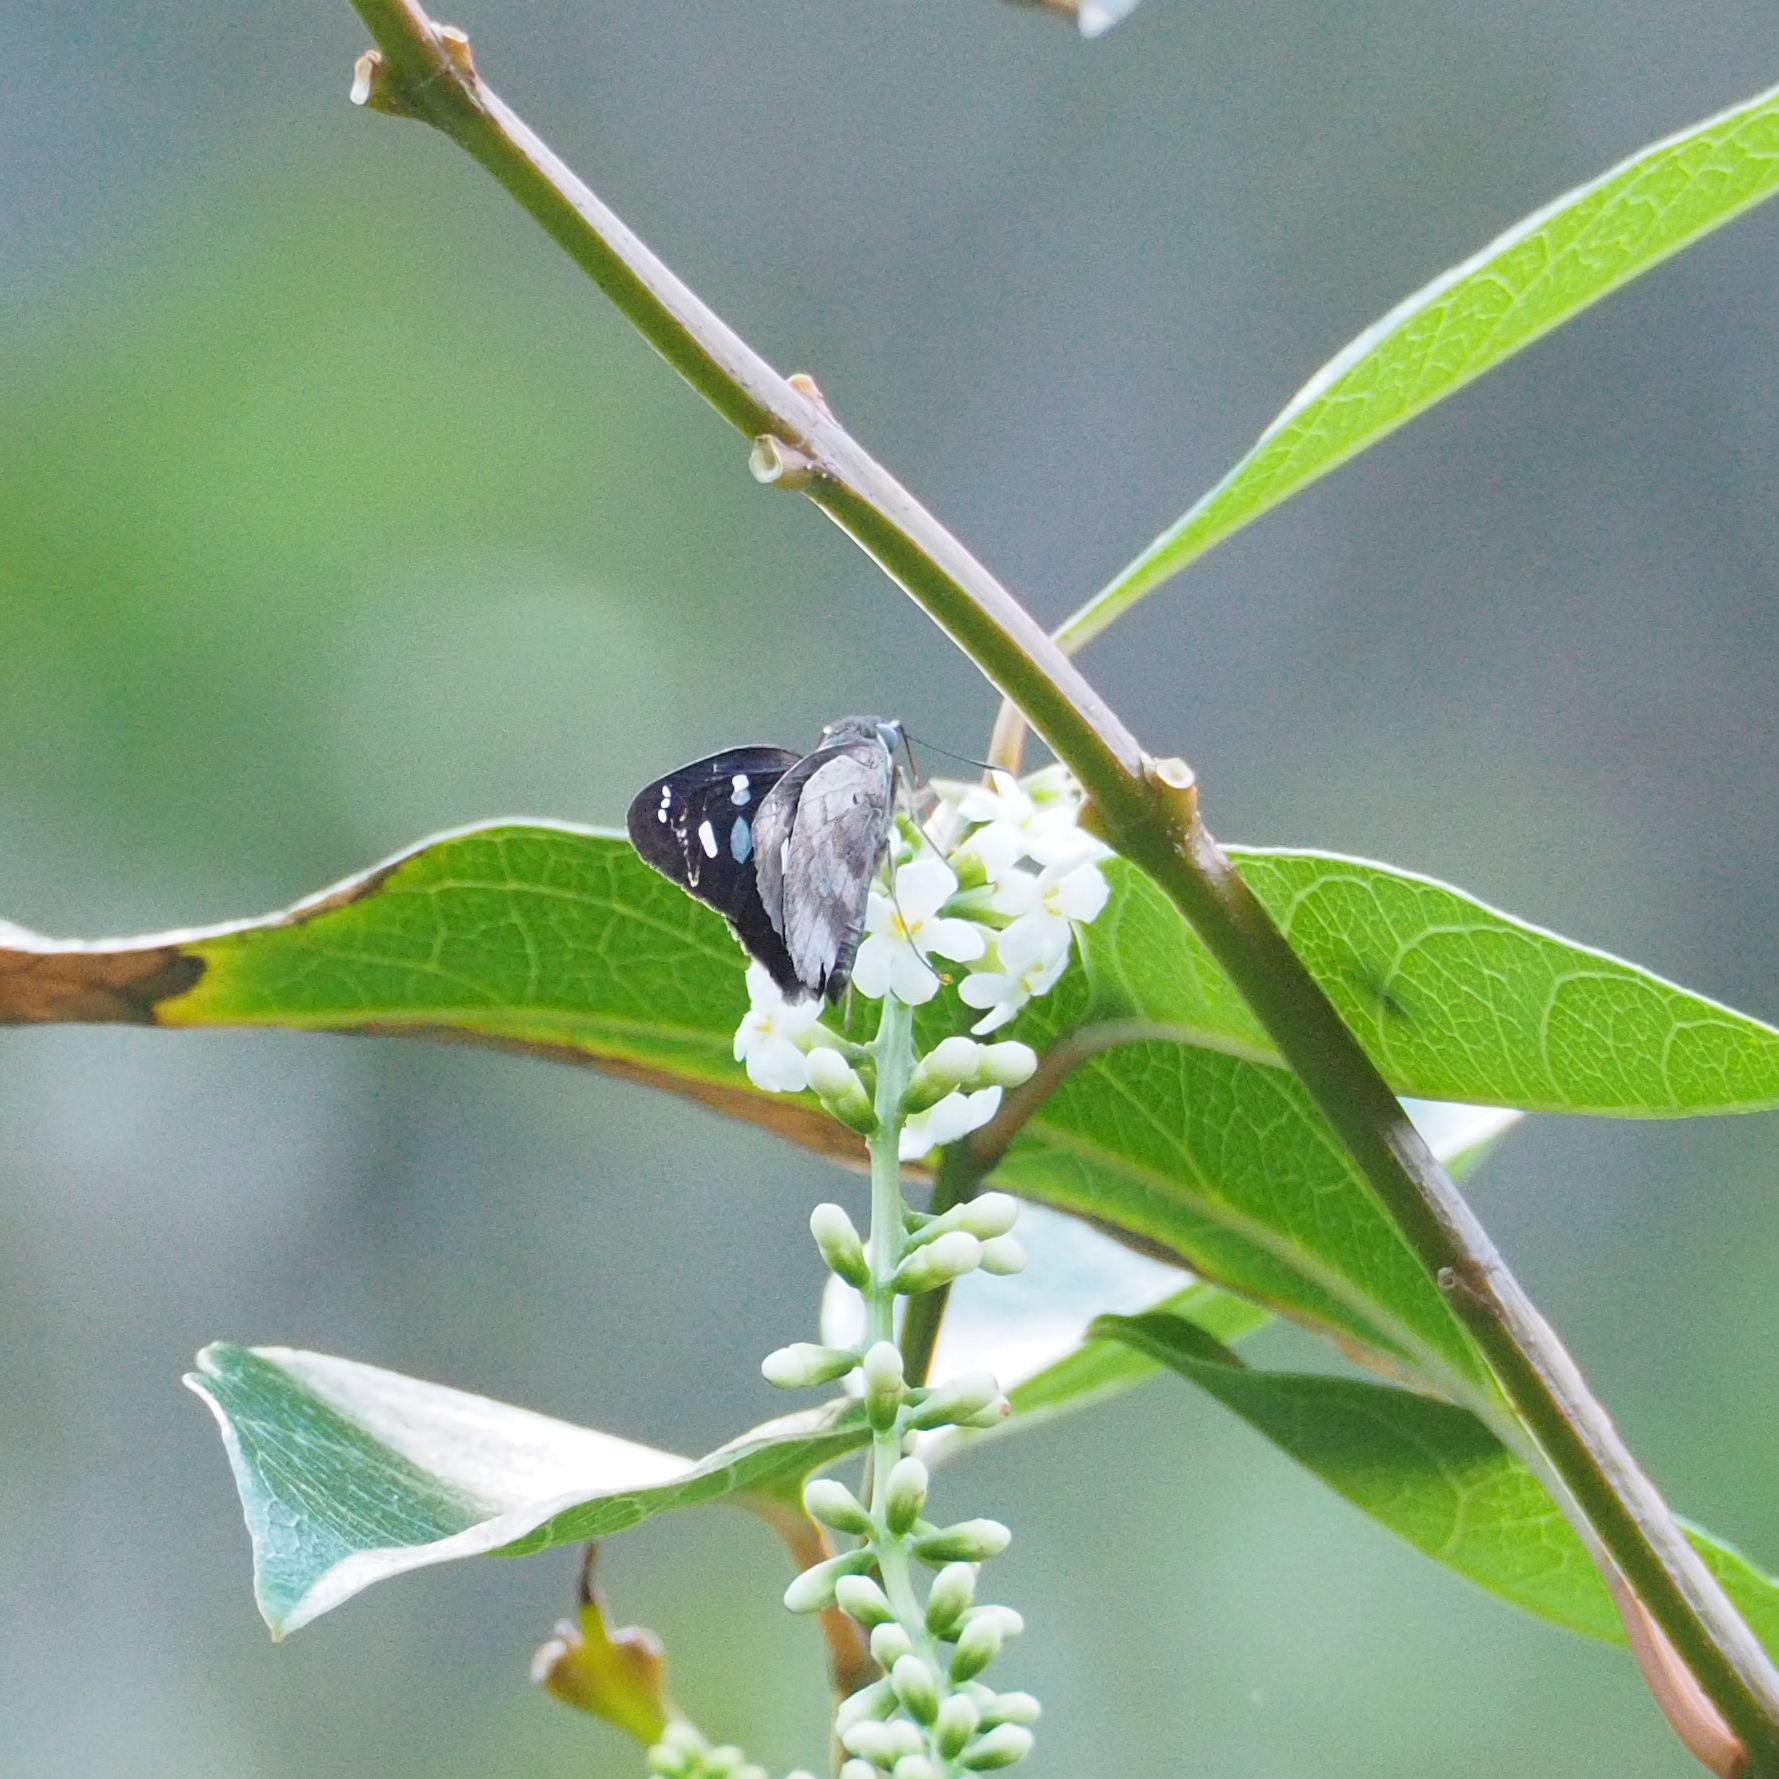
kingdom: Animalia
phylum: Arthropoda
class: Insecta
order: Lepidoptera
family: Hesperiidae
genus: Polygonus
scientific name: Polygonus leo
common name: Hammoch skipper
